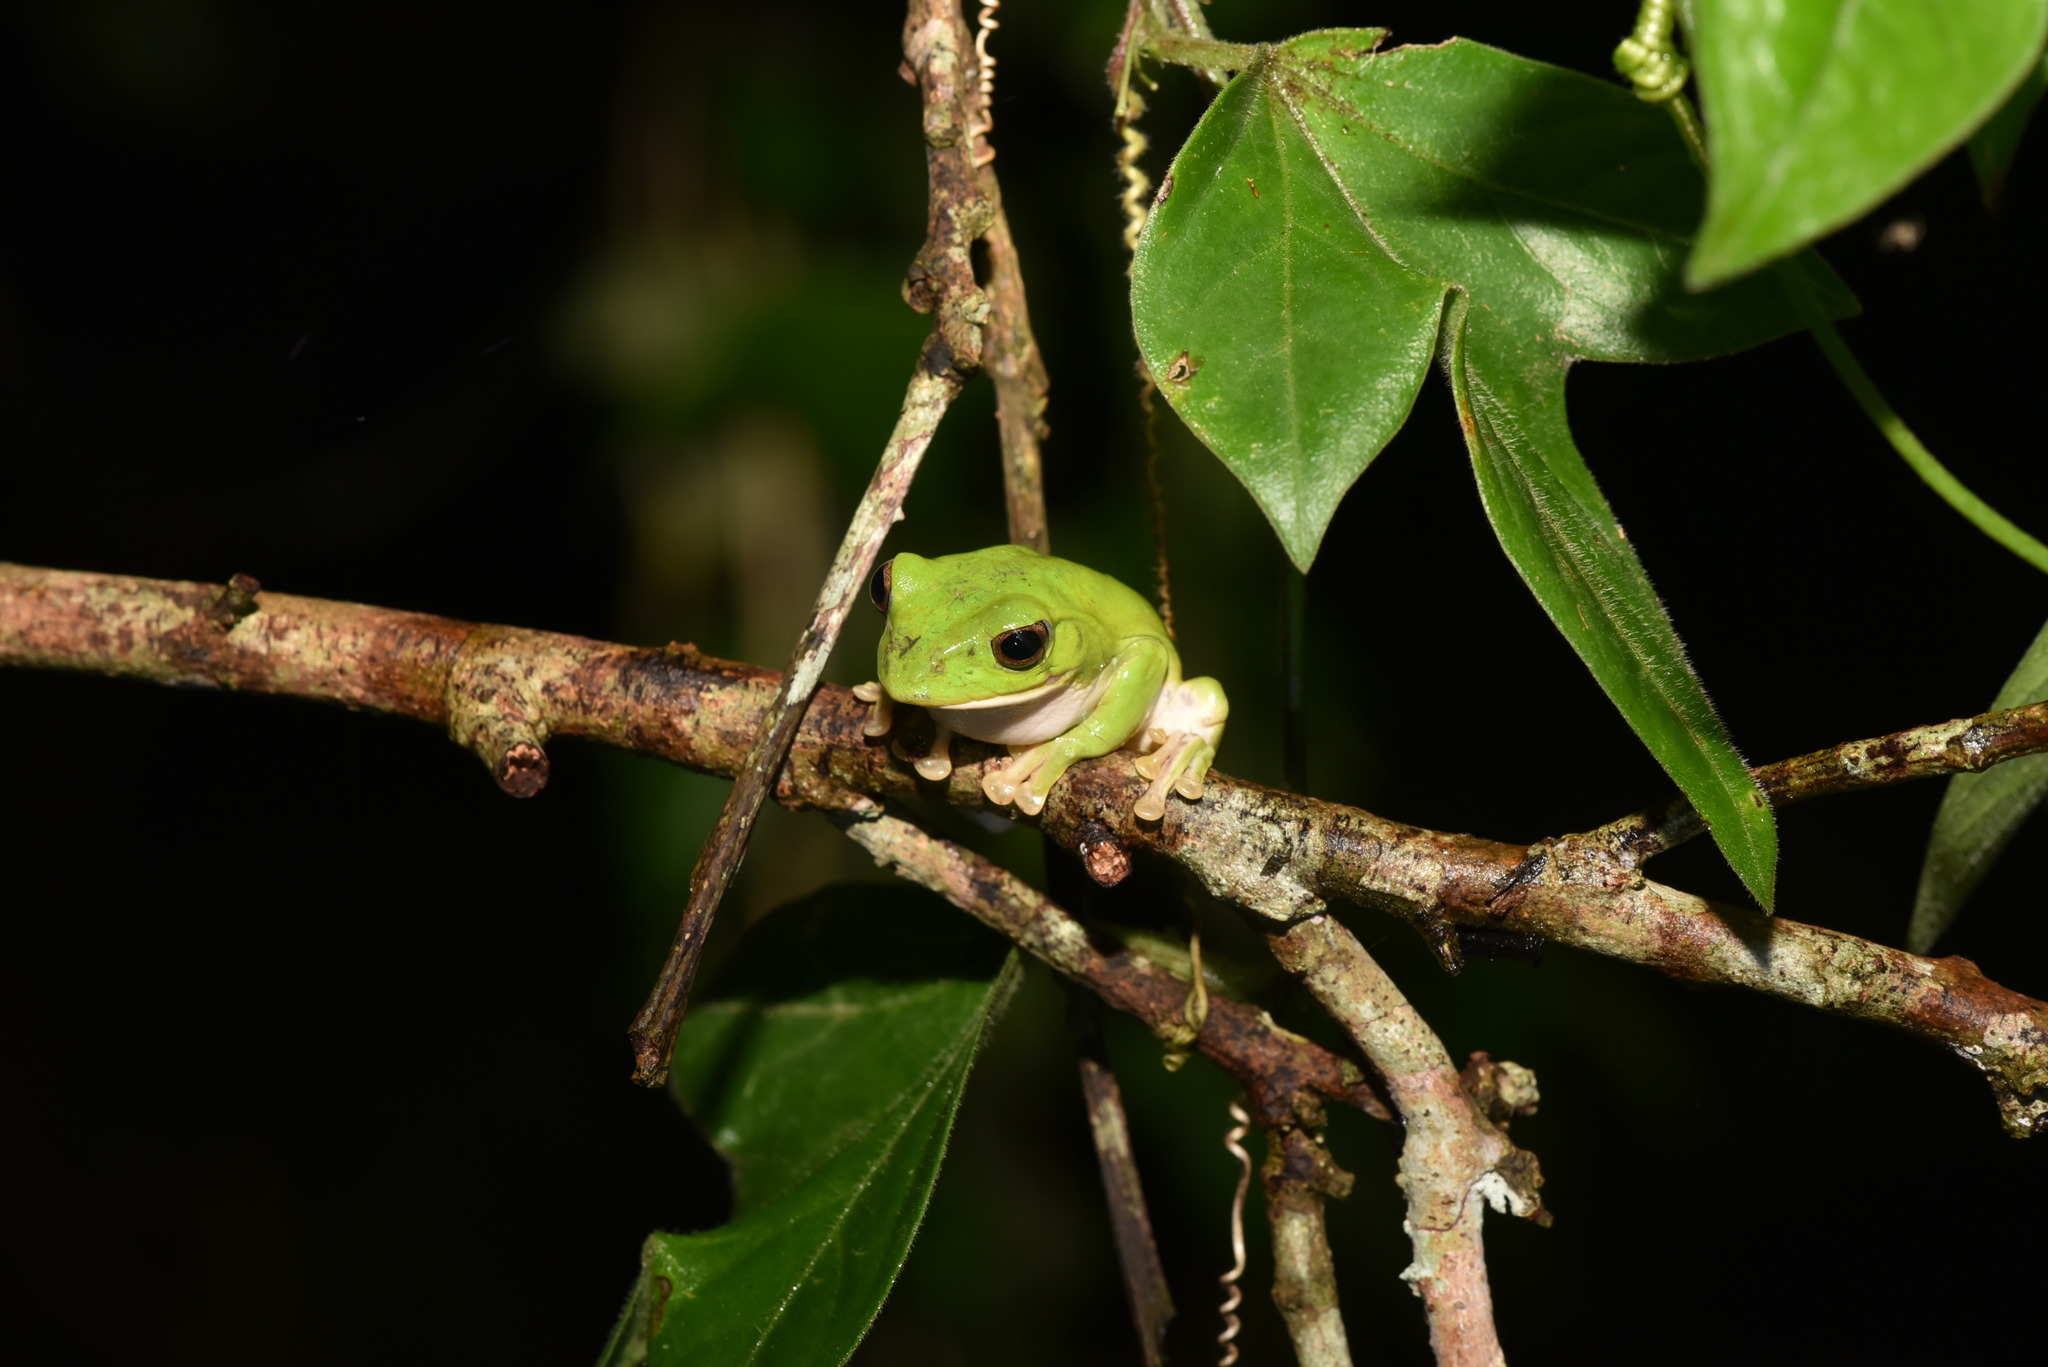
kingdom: Animalia
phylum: Chordata
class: Amphibia
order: Anura
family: Rhacophoridae
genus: Zhangixalus
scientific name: Zhangixalus moltrechti
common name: Moltrecht's treefrog
